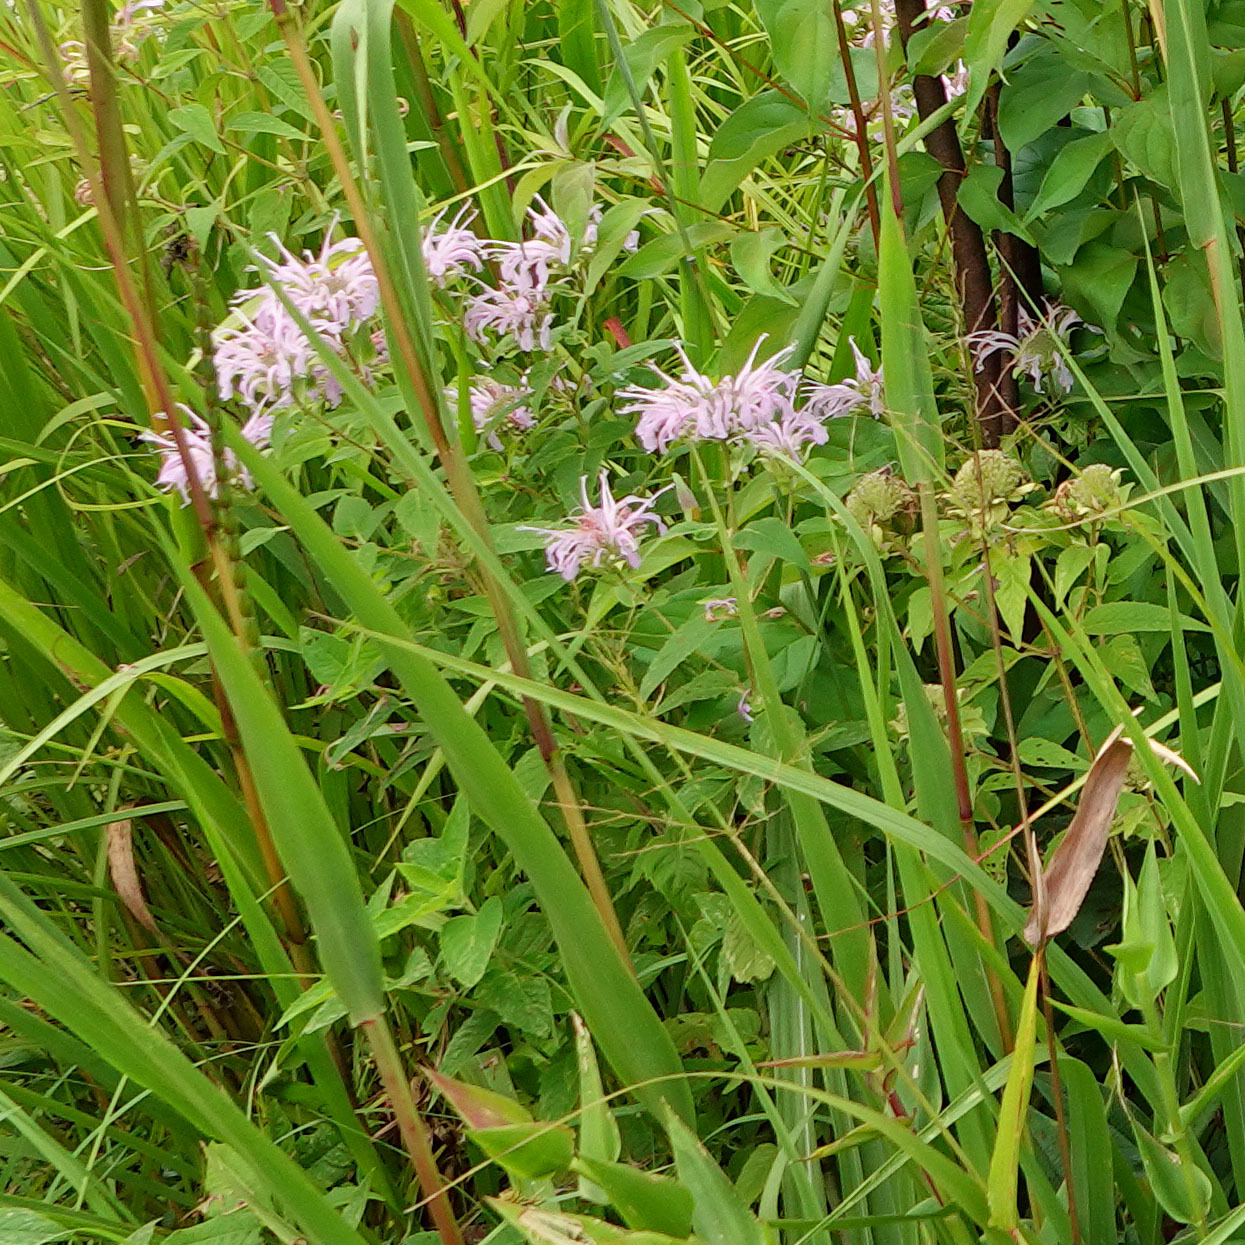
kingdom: Plantae
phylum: Tracheophyta
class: Magnoliopsida
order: Lamiales
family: Lamiaceae
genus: Monarda
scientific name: Monarda fistulosa
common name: Purple beebalm
